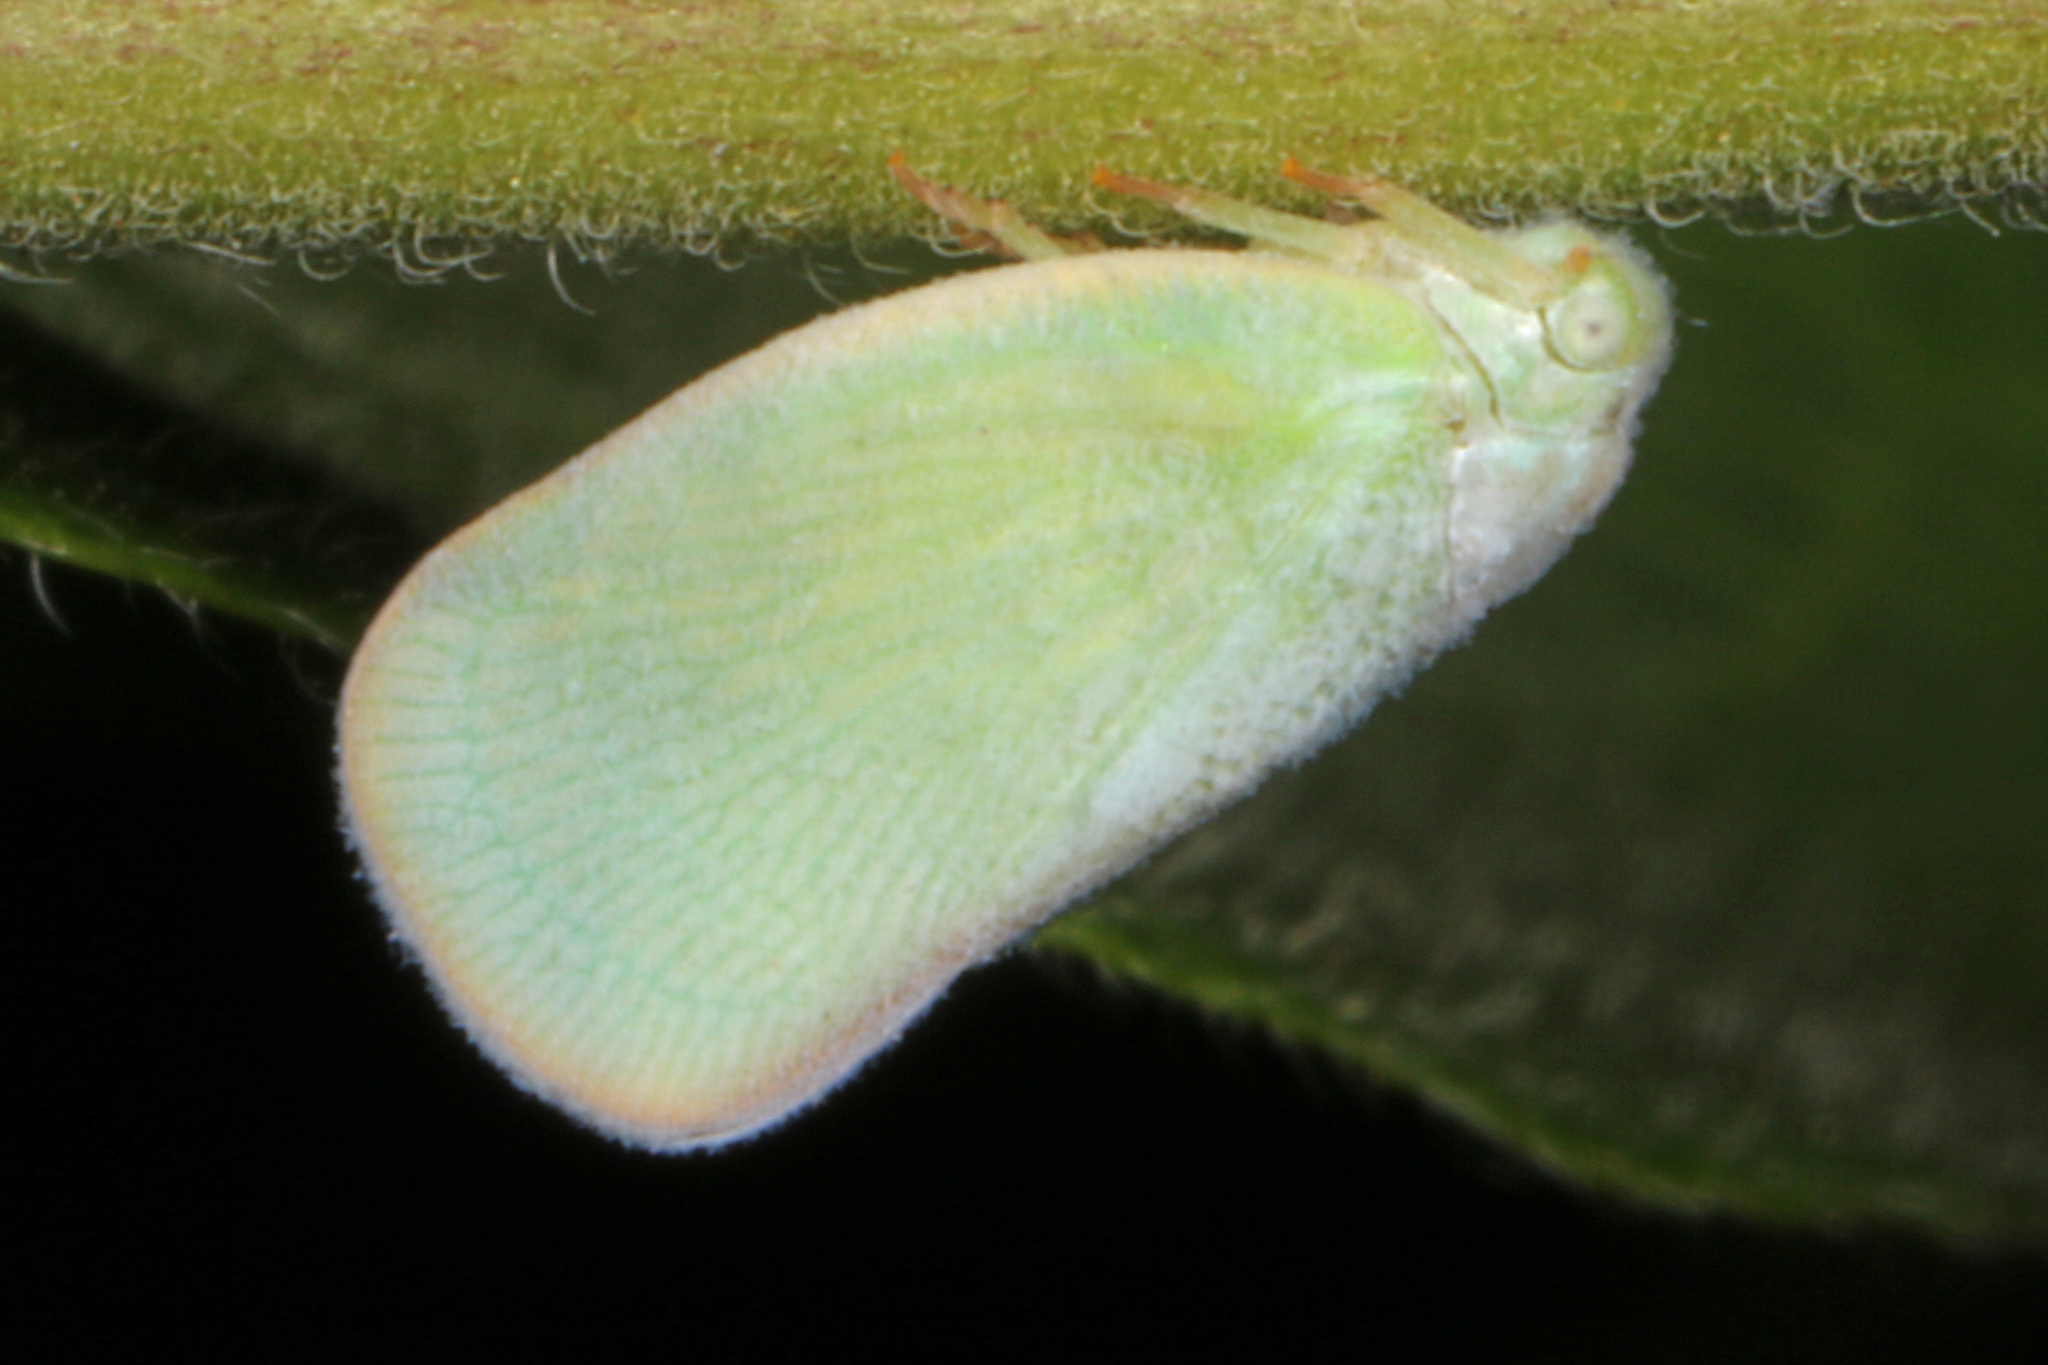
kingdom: Animalia
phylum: Arthropoda
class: Insecta
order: Hemiptera
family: Flatidae
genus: Ormenoides
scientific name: Ormenoides venusta
